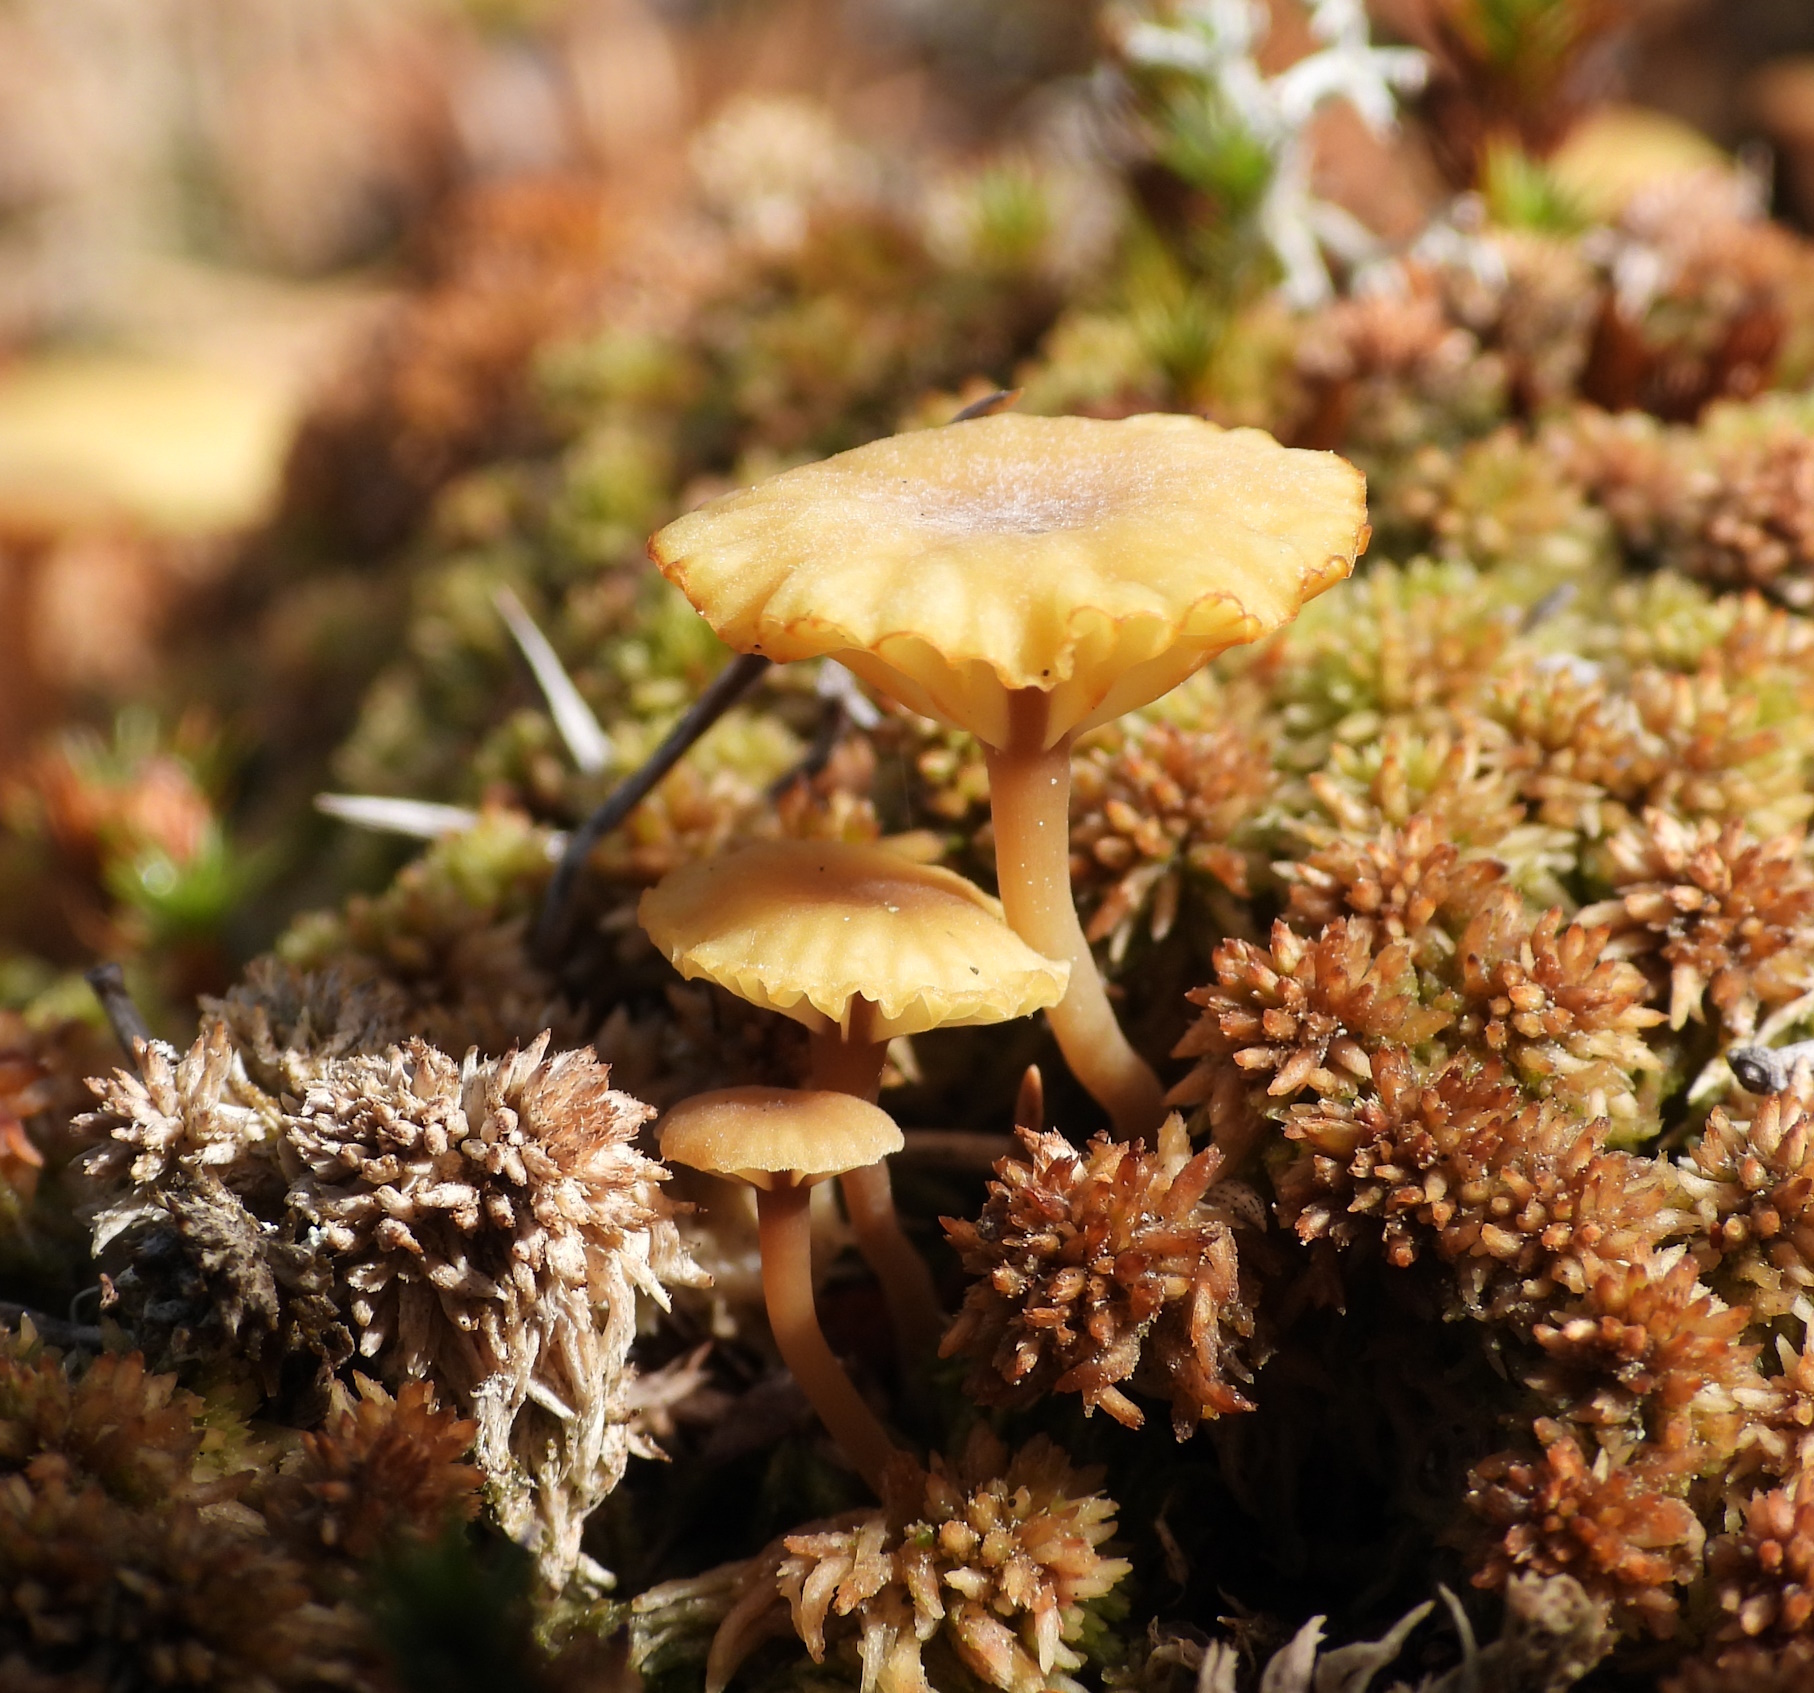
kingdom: Fungi
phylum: Basidiomycota
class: Agaricomycetes
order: Agaricales
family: Hygrophoraceae
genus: Lichenomphalia
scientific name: Lichenomphalia
